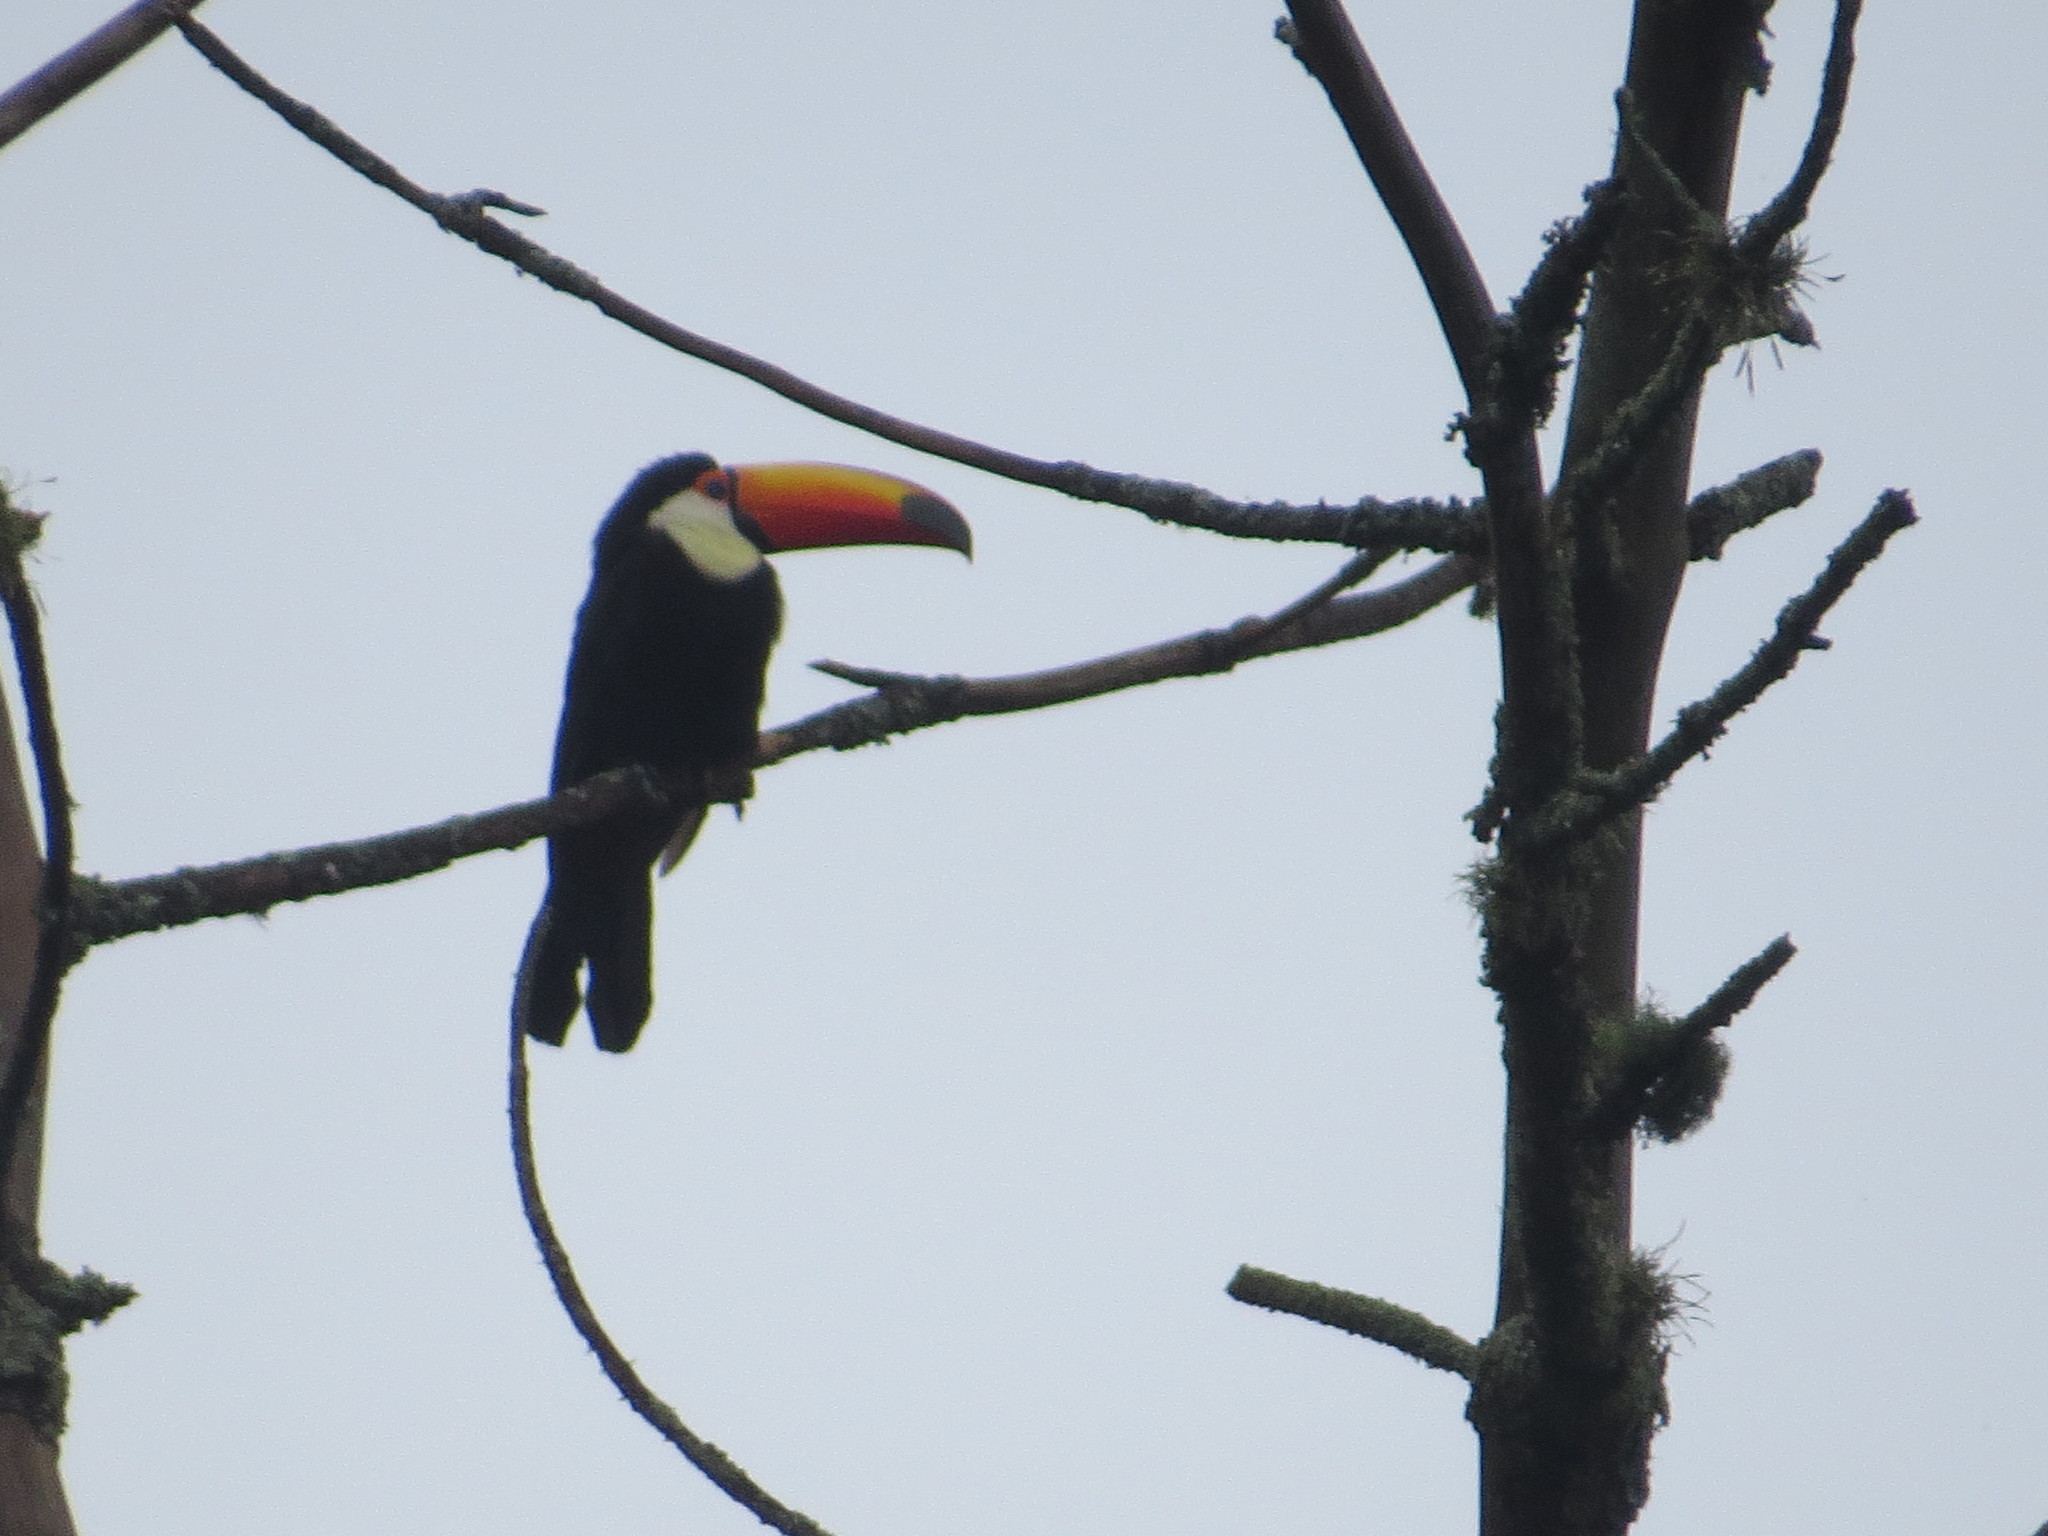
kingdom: Animalia
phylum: Chordata
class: Aves
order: Piciformes
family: Ramphastidae
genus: Ramphastos
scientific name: Ramphastos toco
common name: Toco toucan
